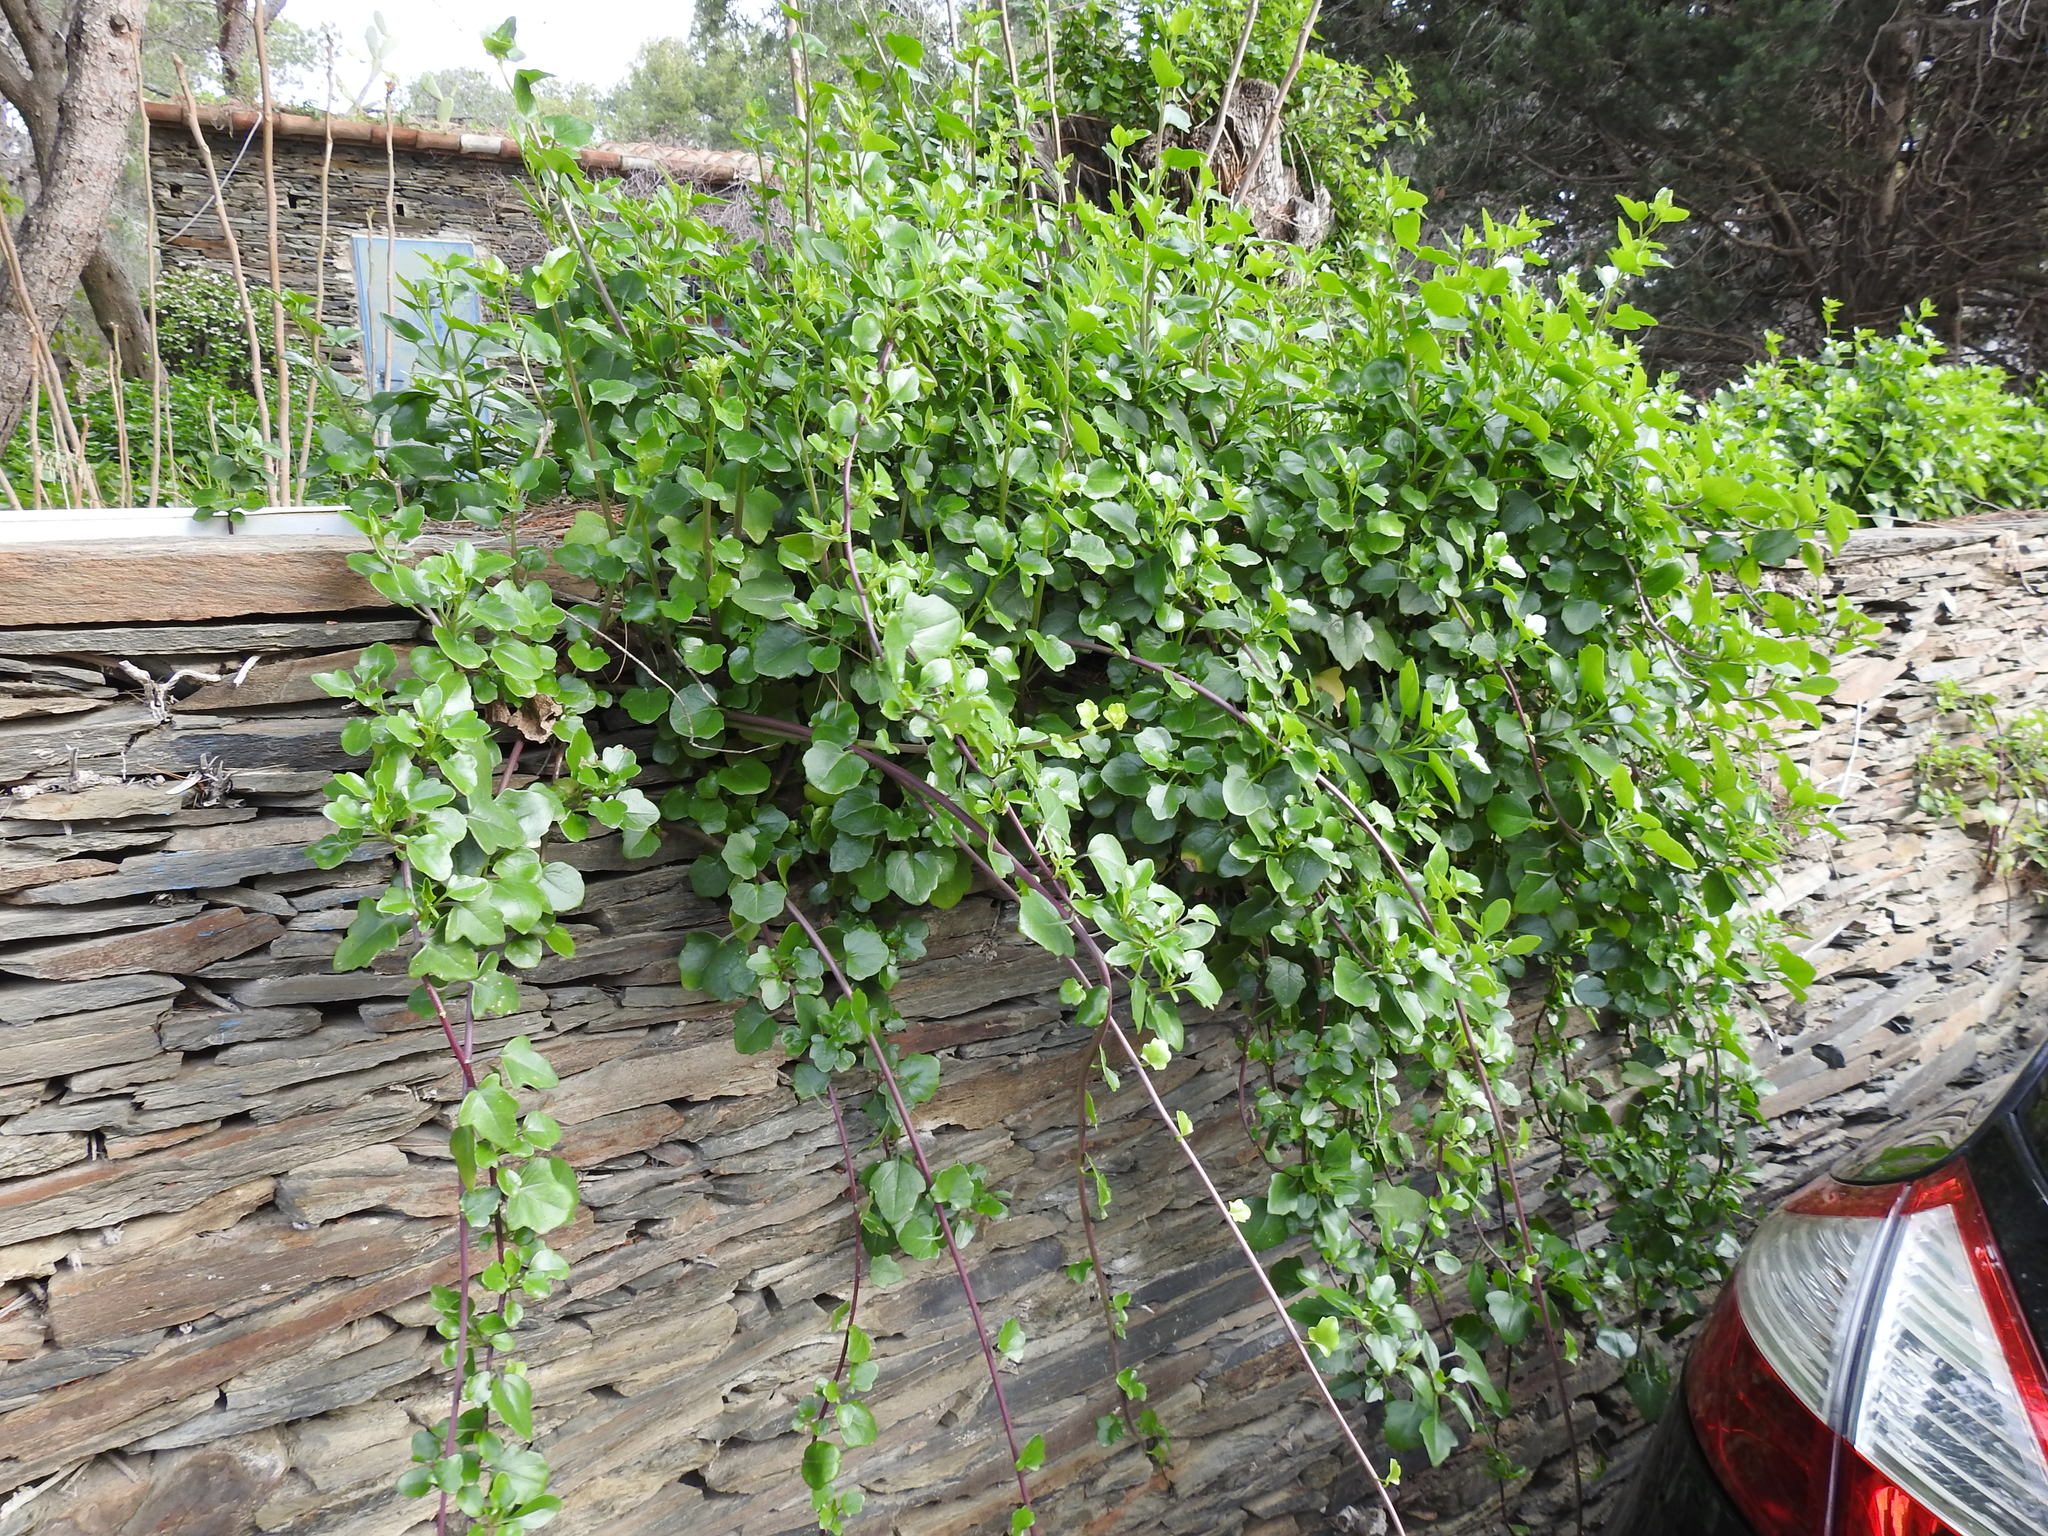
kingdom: Plantae
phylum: Tracheophyta
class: Magnoliopsida
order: Asterales
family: Asteraceae
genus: Senecio
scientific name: Senecio angulatus
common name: Climbing groundsel
